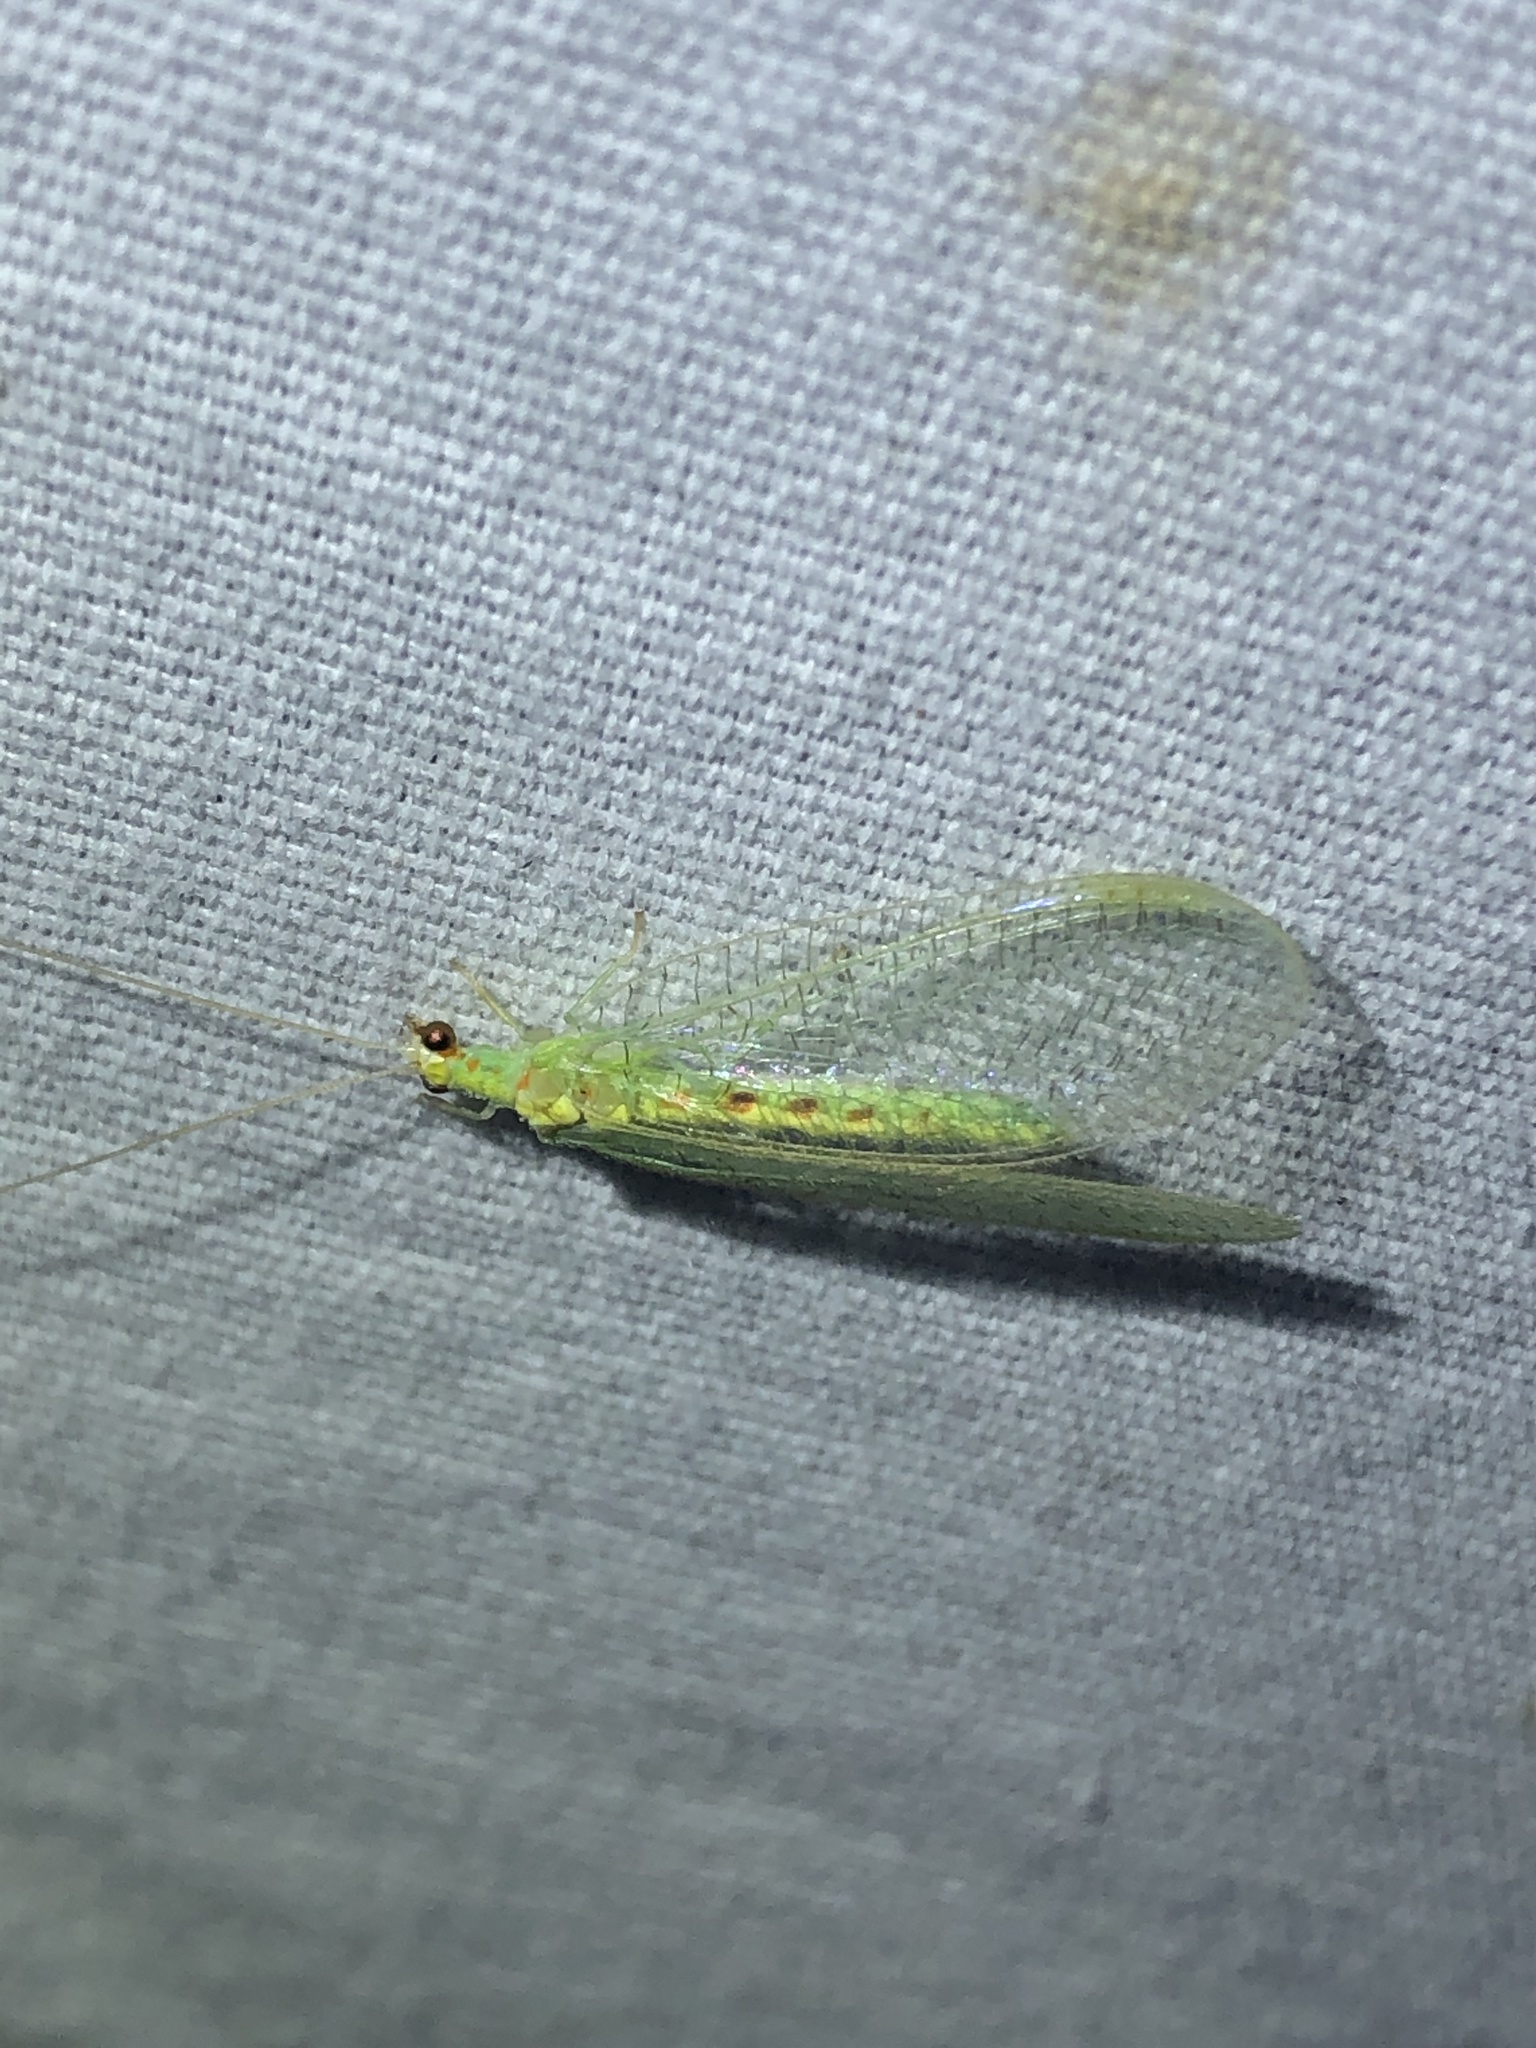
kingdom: Animalia
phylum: Arthropoda
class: Insecta
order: Neuroptera
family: Chrysopidae
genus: Chrysopa
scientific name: Chrysopa quadripunctata
